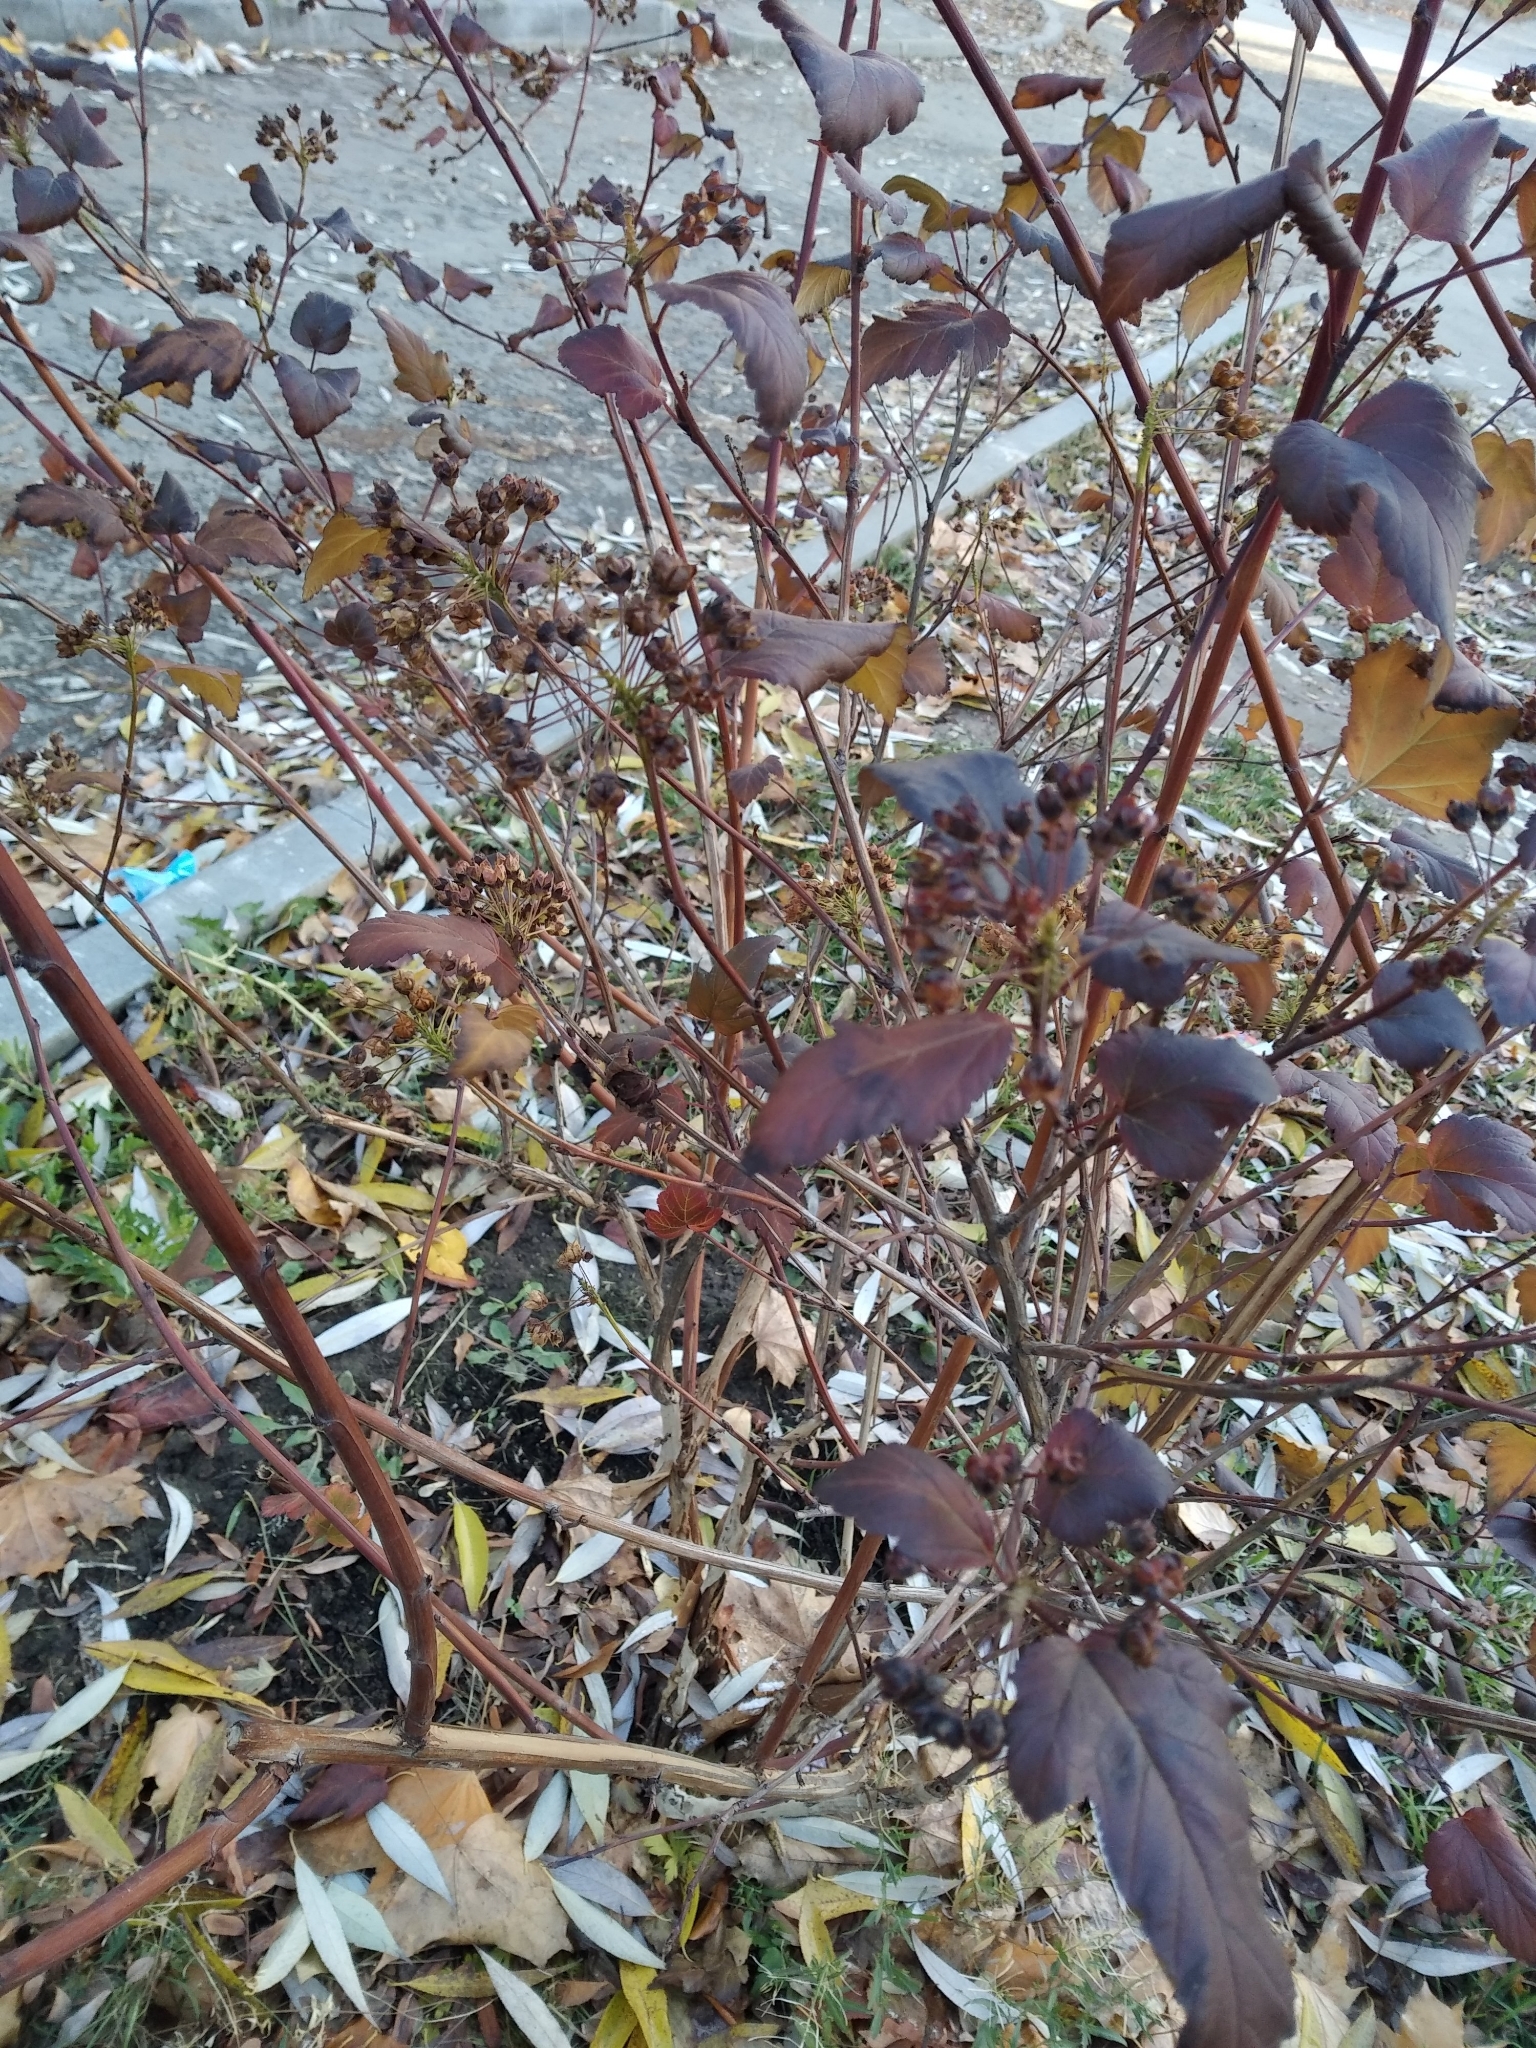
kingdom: Plantae
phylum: Tracheophyta
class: Magnoliopsida
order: Rosales
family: Rosaceae
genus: Physocarpus
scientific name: Physocarpus opulifolius
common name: Ninebark
